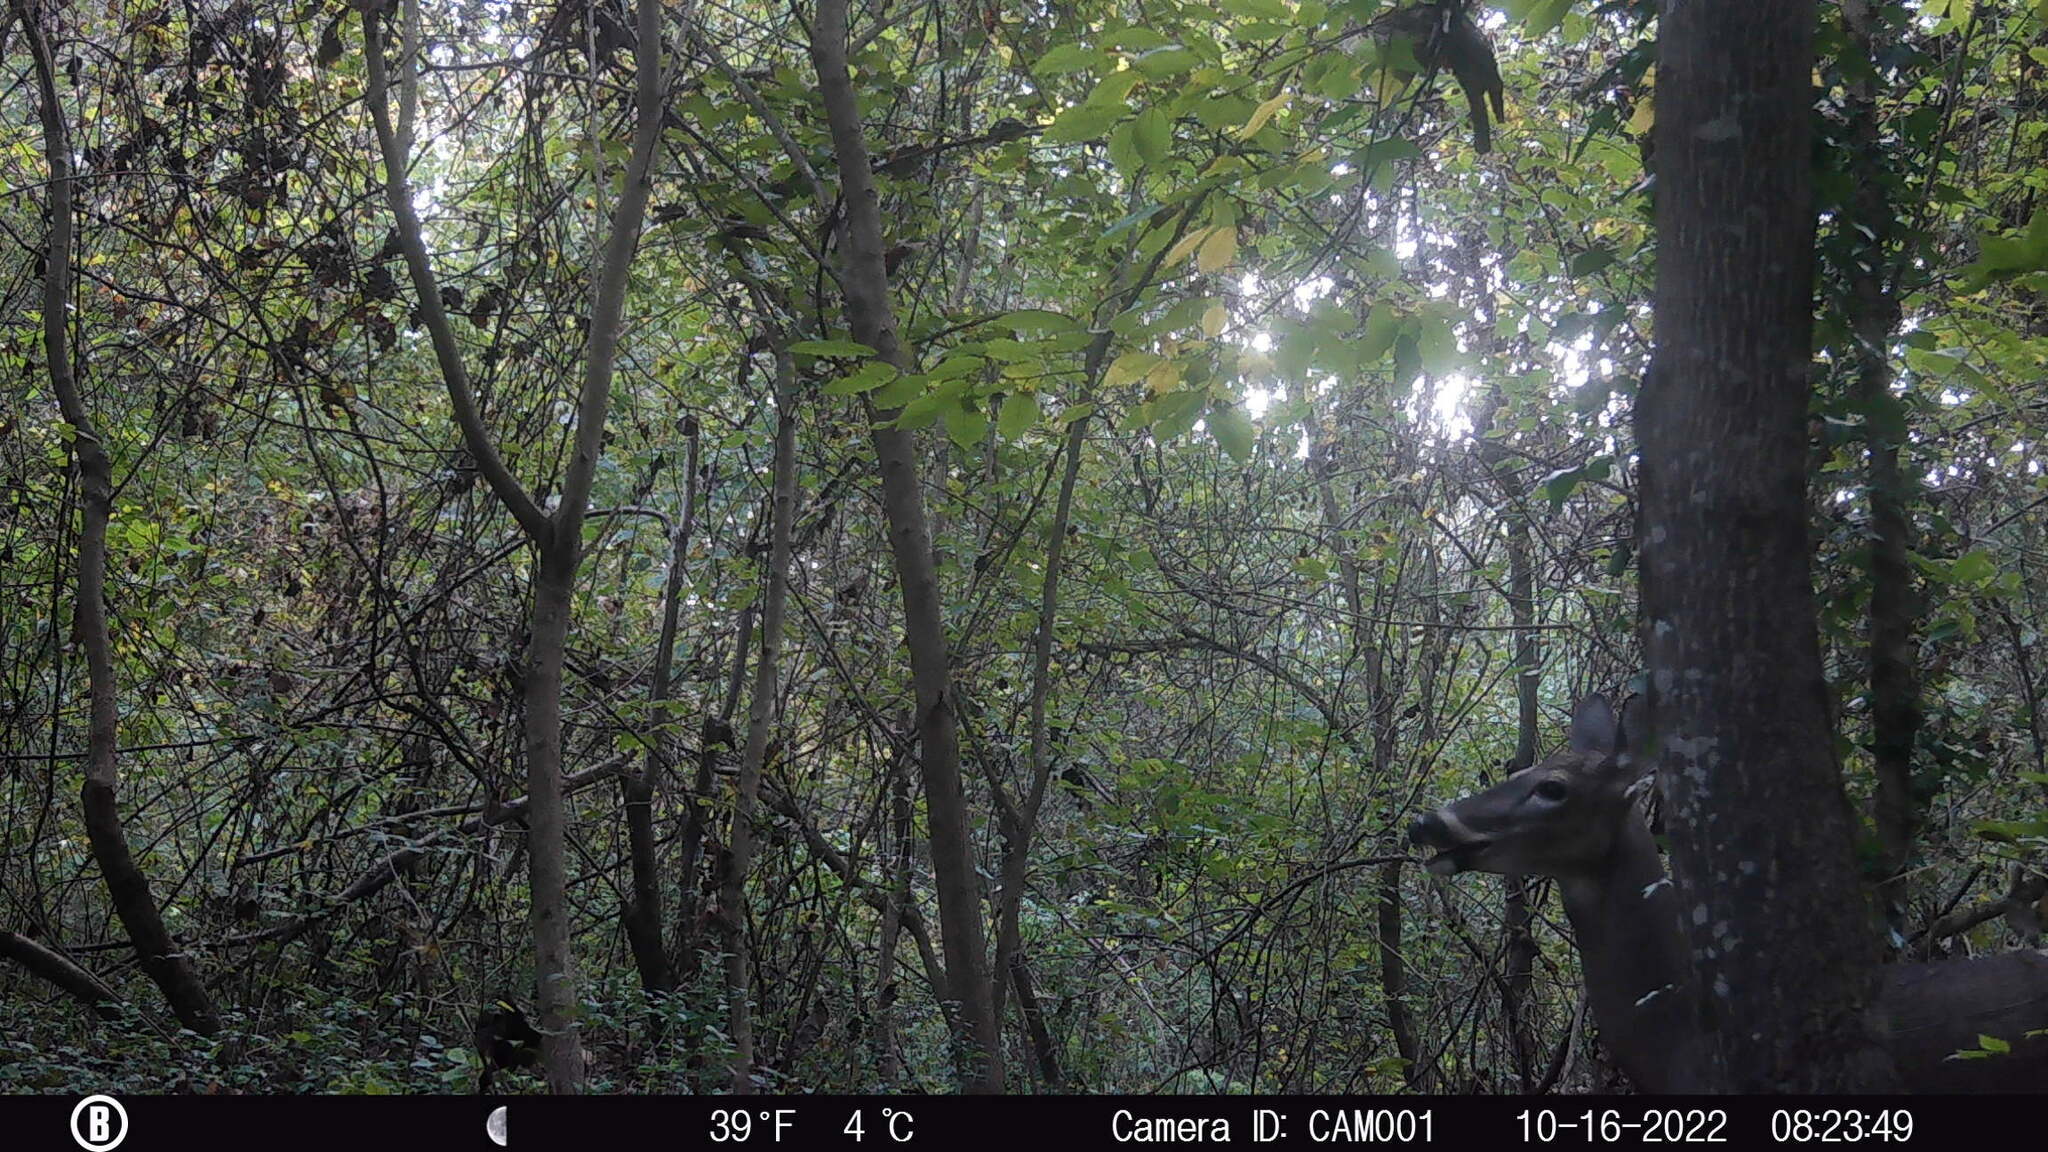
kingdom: Animalia
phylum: Chordata
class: Mammalia
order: Artiodactyla
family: Cervidae
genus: Odocoileus
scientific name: Odocoileus virginianus
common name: White-tailed deer
